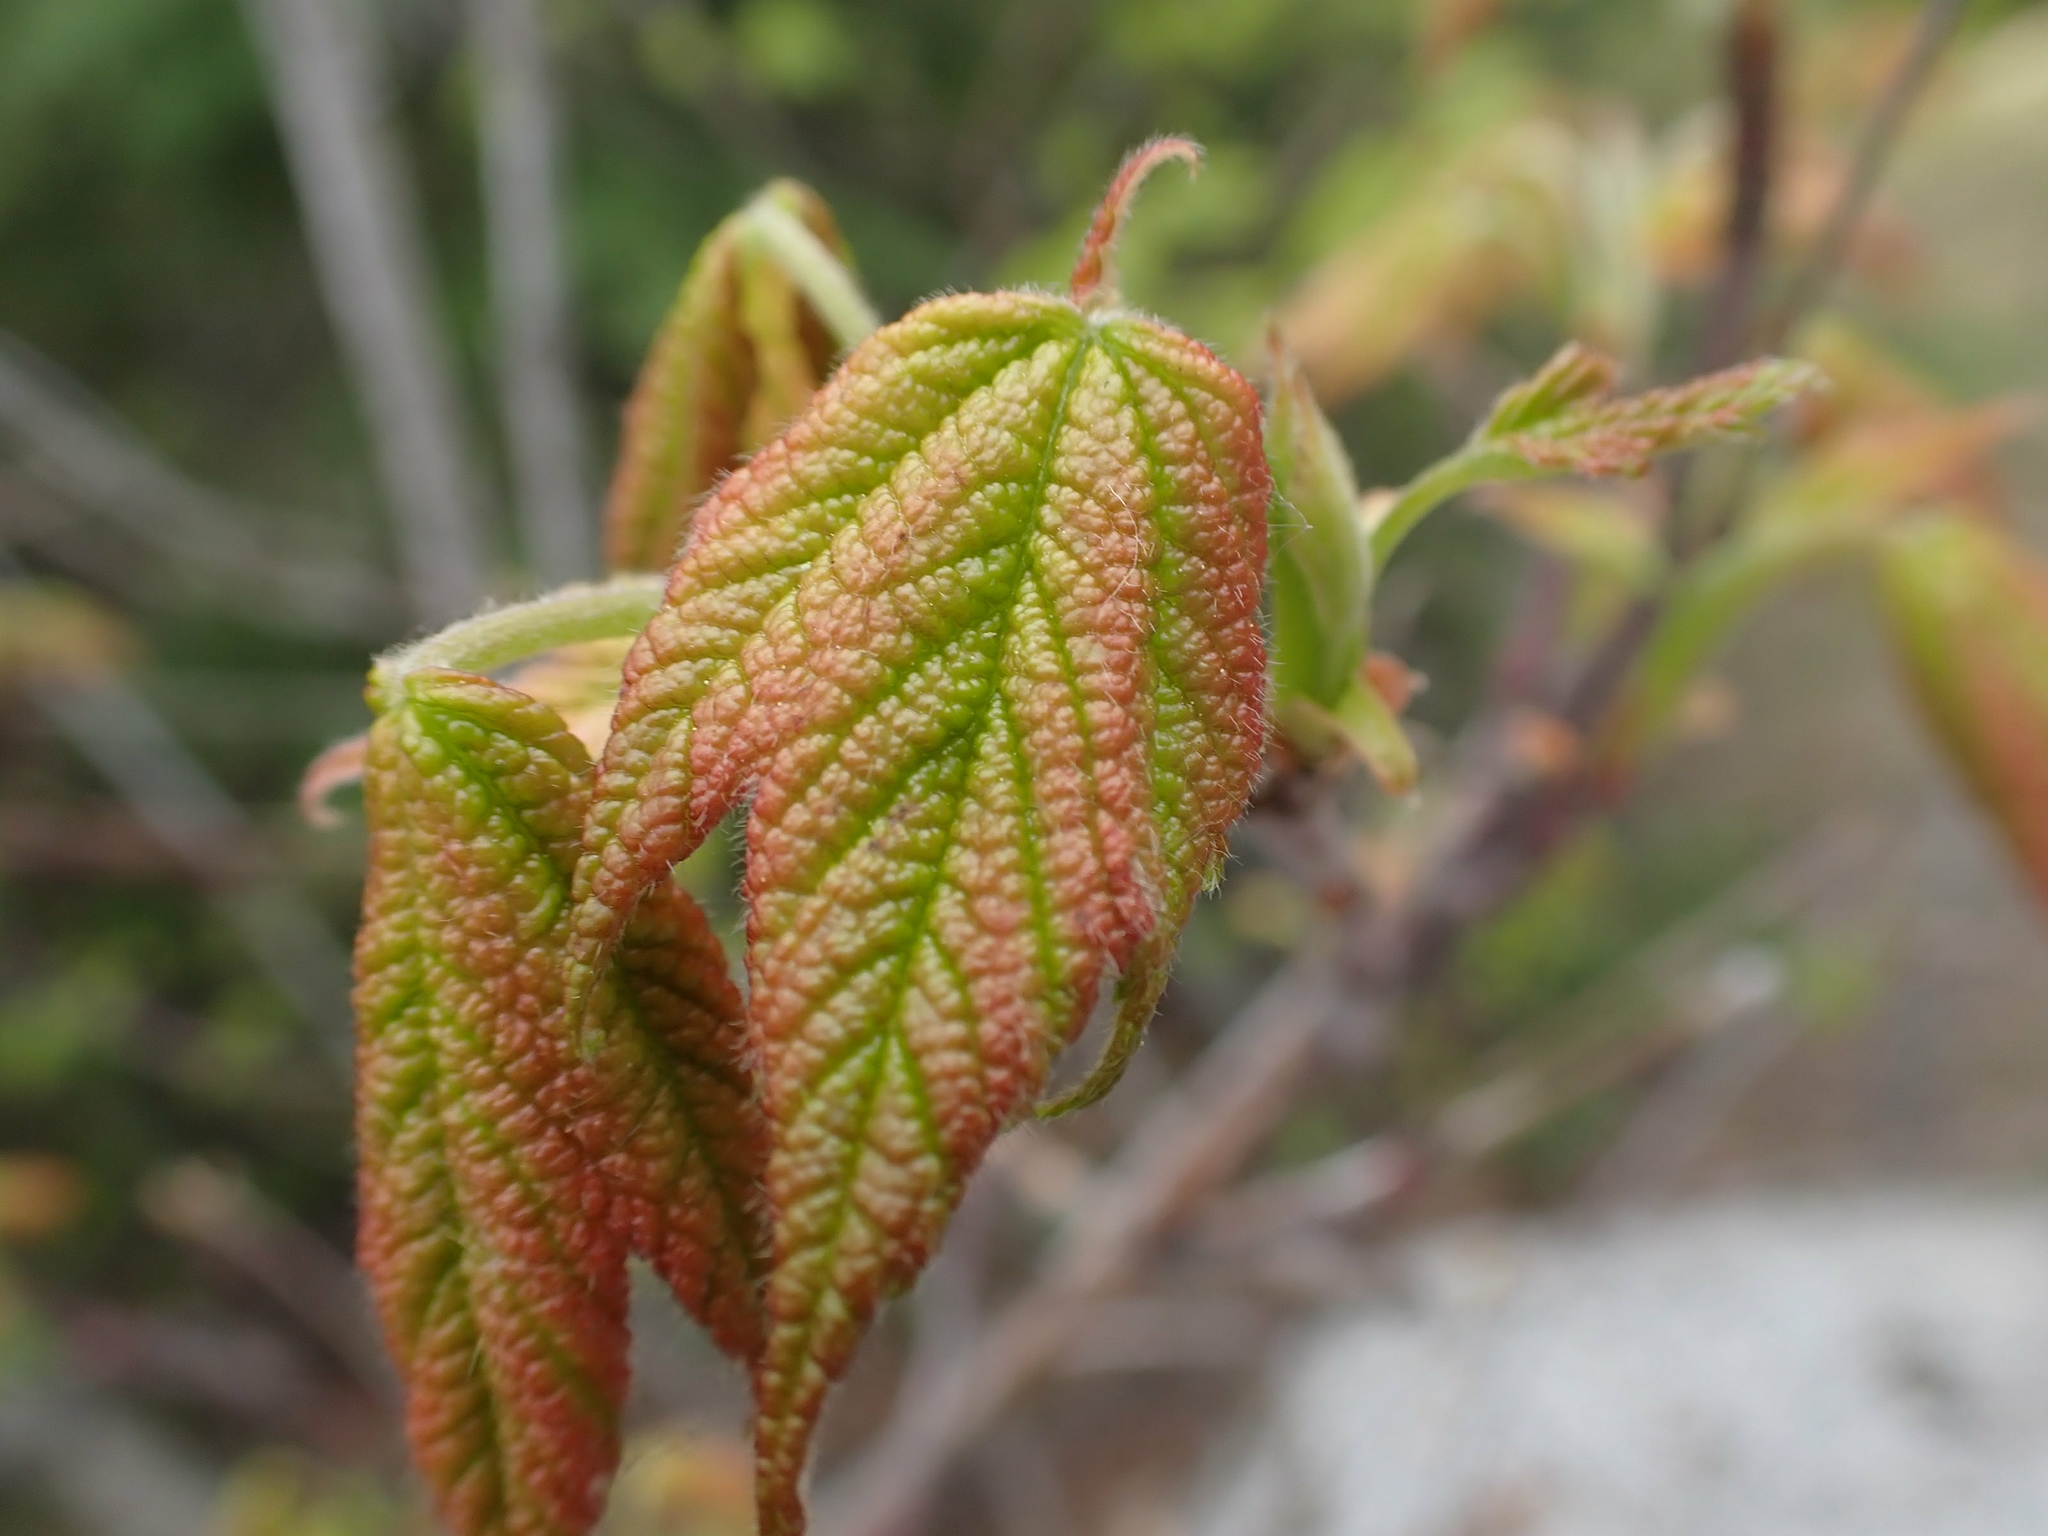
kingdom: Plantae
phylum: Tracheophyta
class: Magnoliopsida
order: Sapindales
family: Sapindaceae
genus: Acer
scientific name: Acer spicatum
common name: Mountain maple
